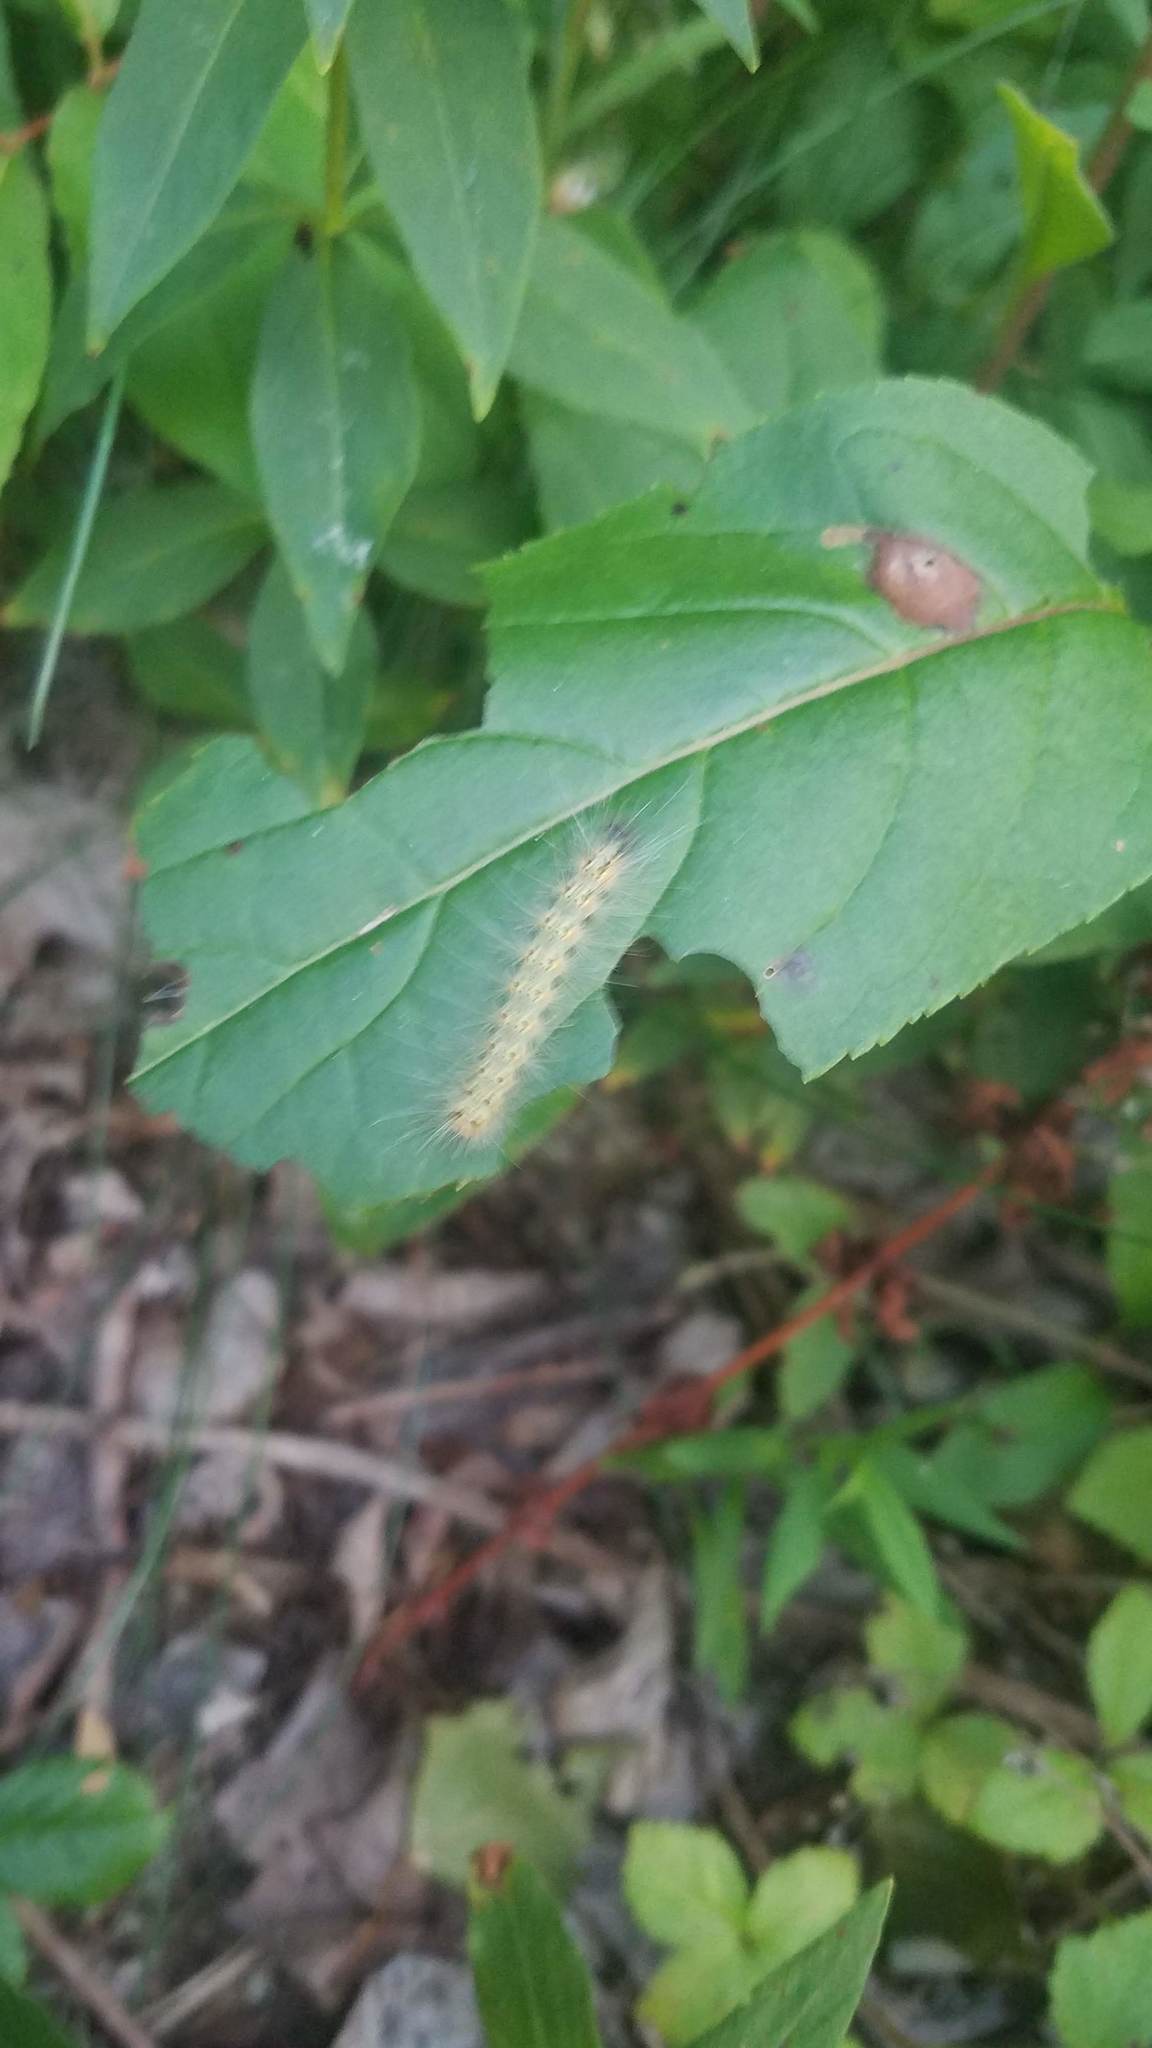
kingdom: Animalia
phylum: Arthropoda
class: Insecta
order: Lepidoptera
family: Erebidae
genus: Hyphantria
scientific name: Hyphantria cunea
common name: American white moth
